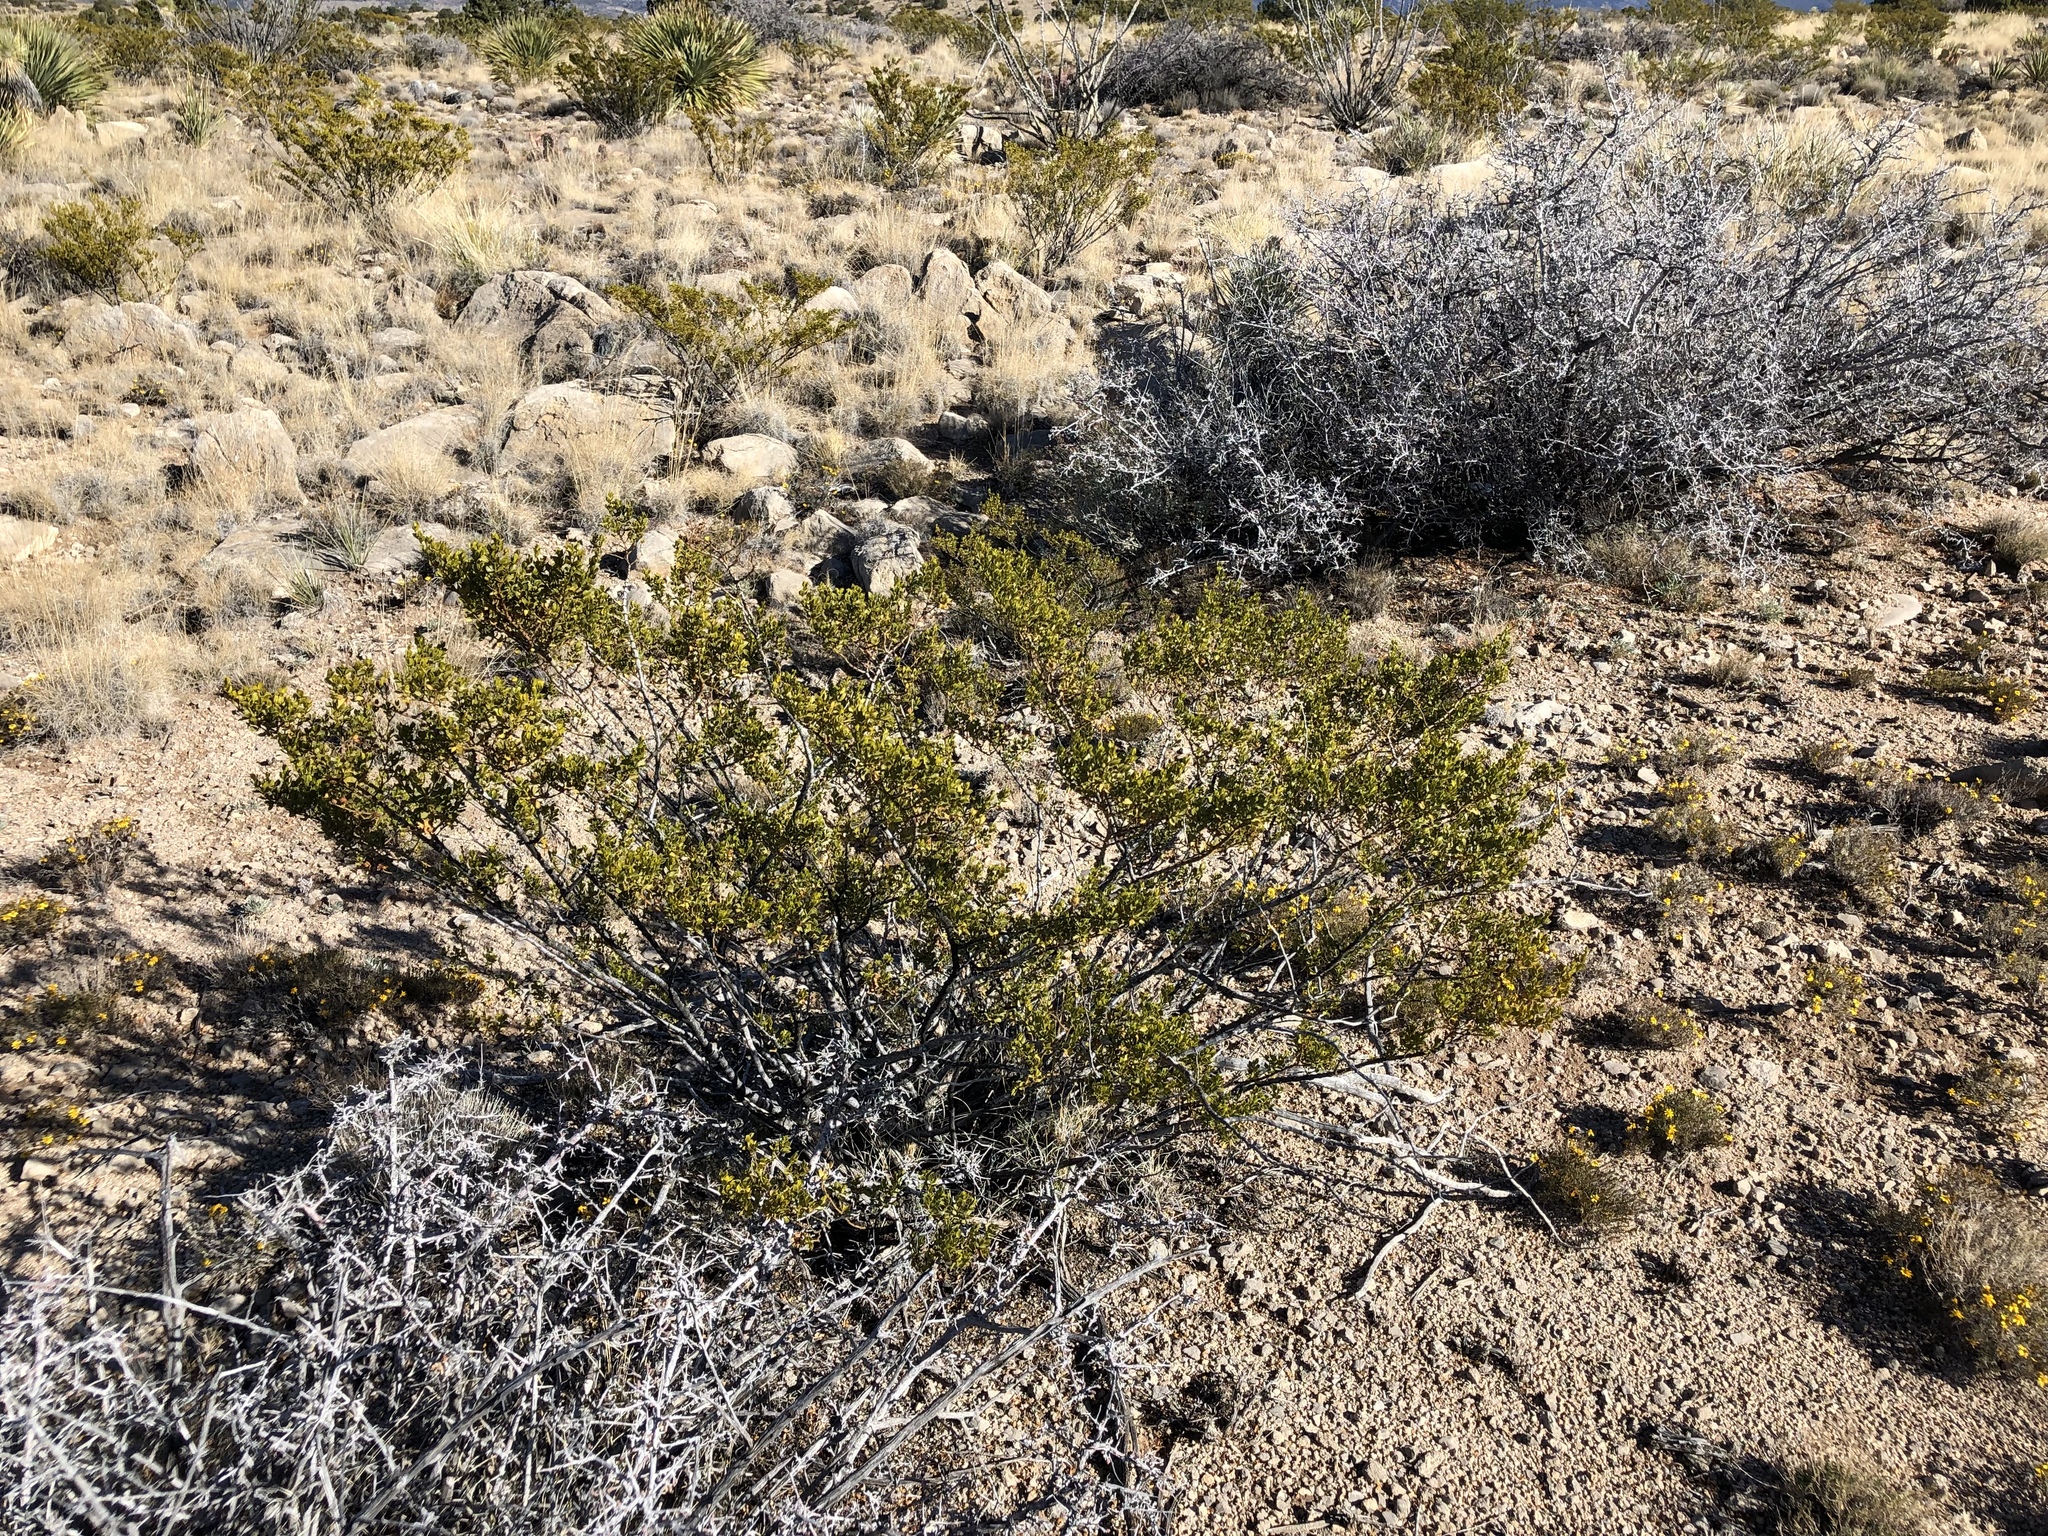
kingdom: Plantae
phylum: Tracheophyta
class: Magnoliopsida
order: Zygophyllales
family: Zygophyllaceae
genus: Larrea
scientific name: Larrea tridentata
